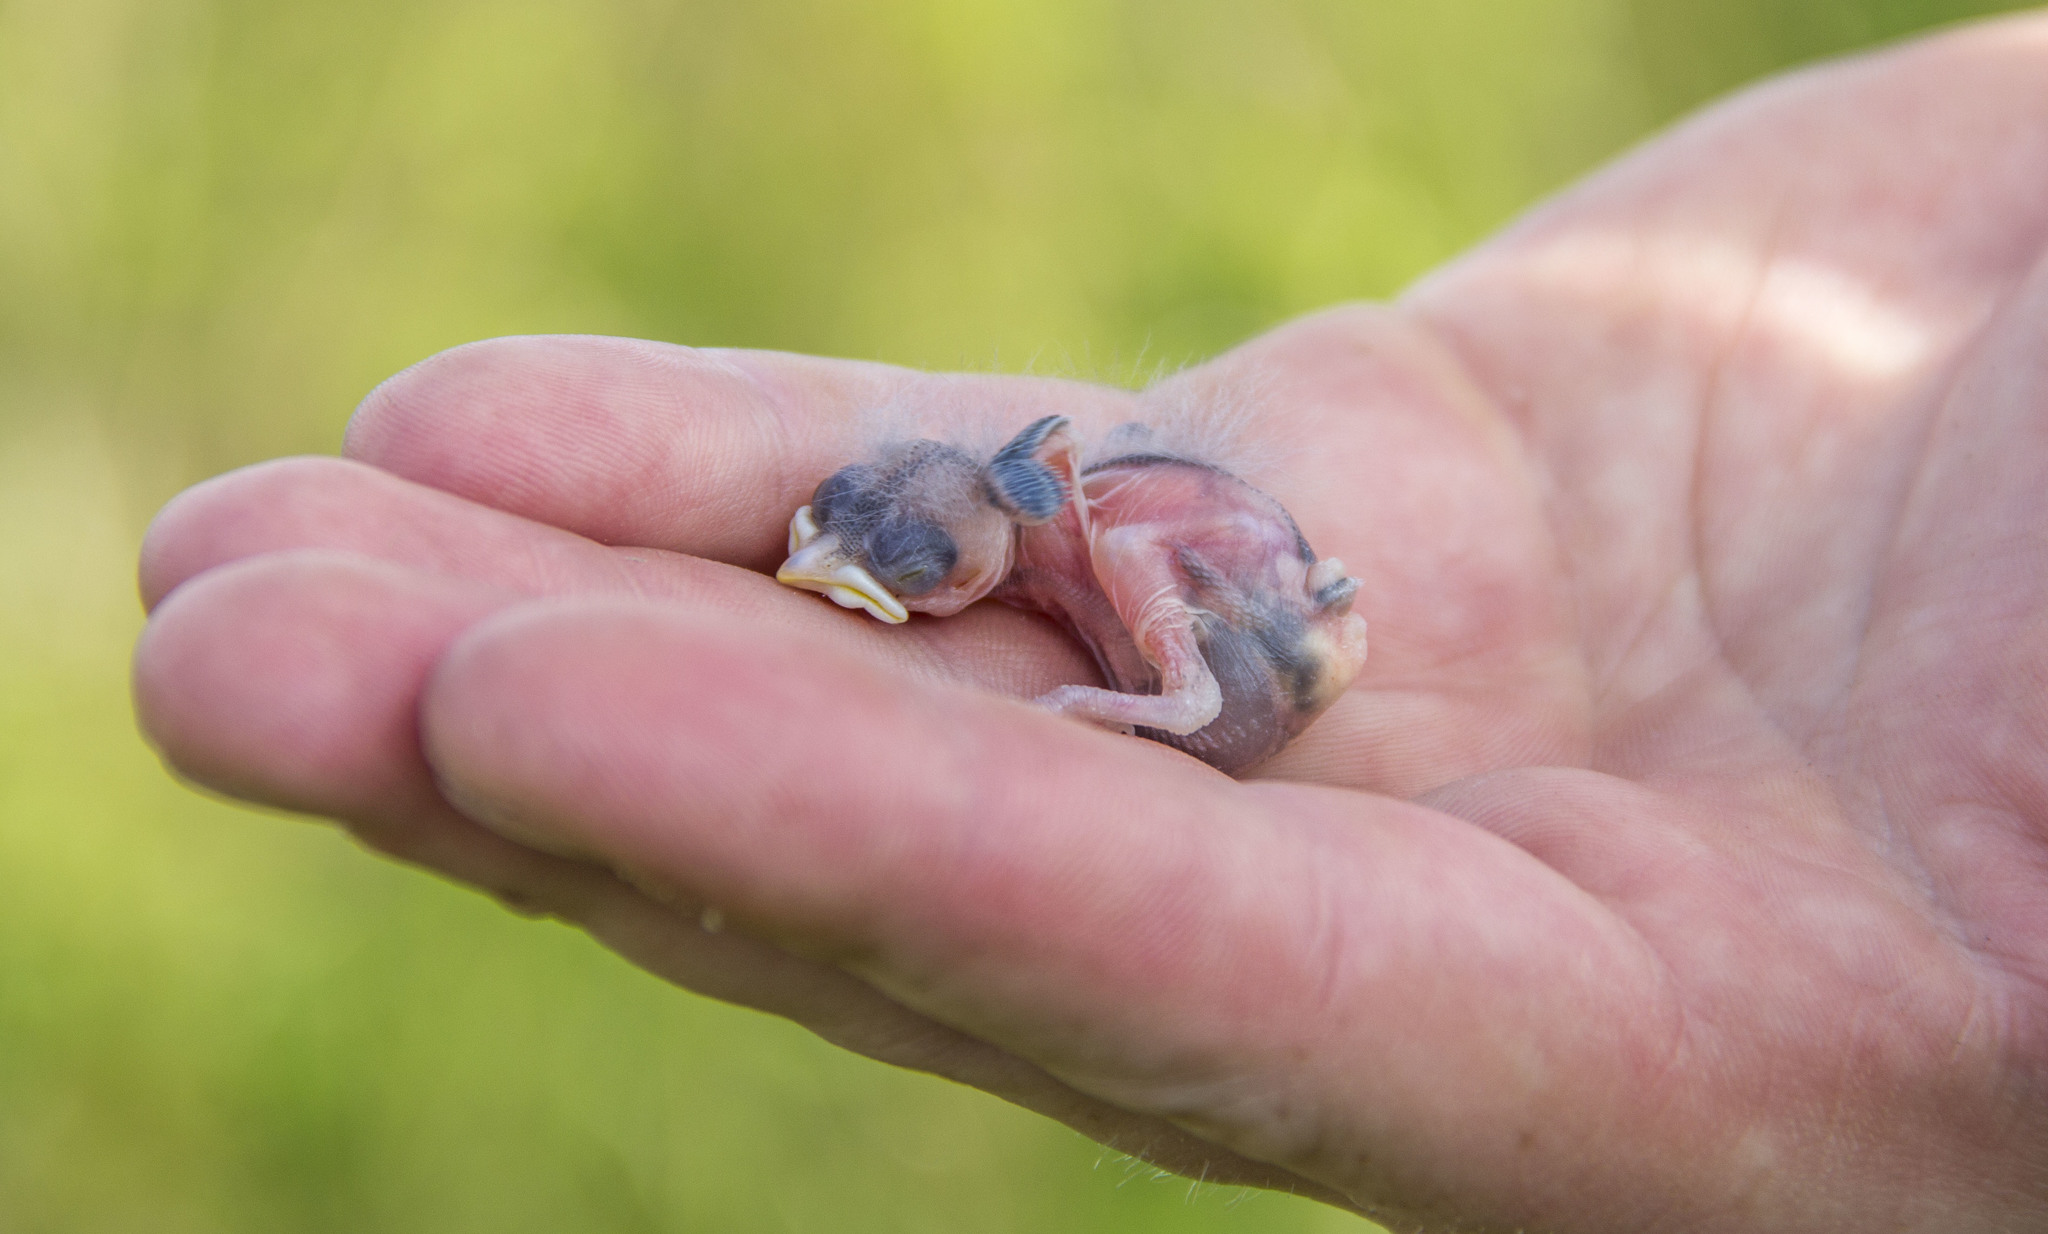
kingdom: Animalia
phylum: Chordata
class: Aves
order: Passeriformes
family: Paridae
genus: Poecile
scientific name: Poecile
